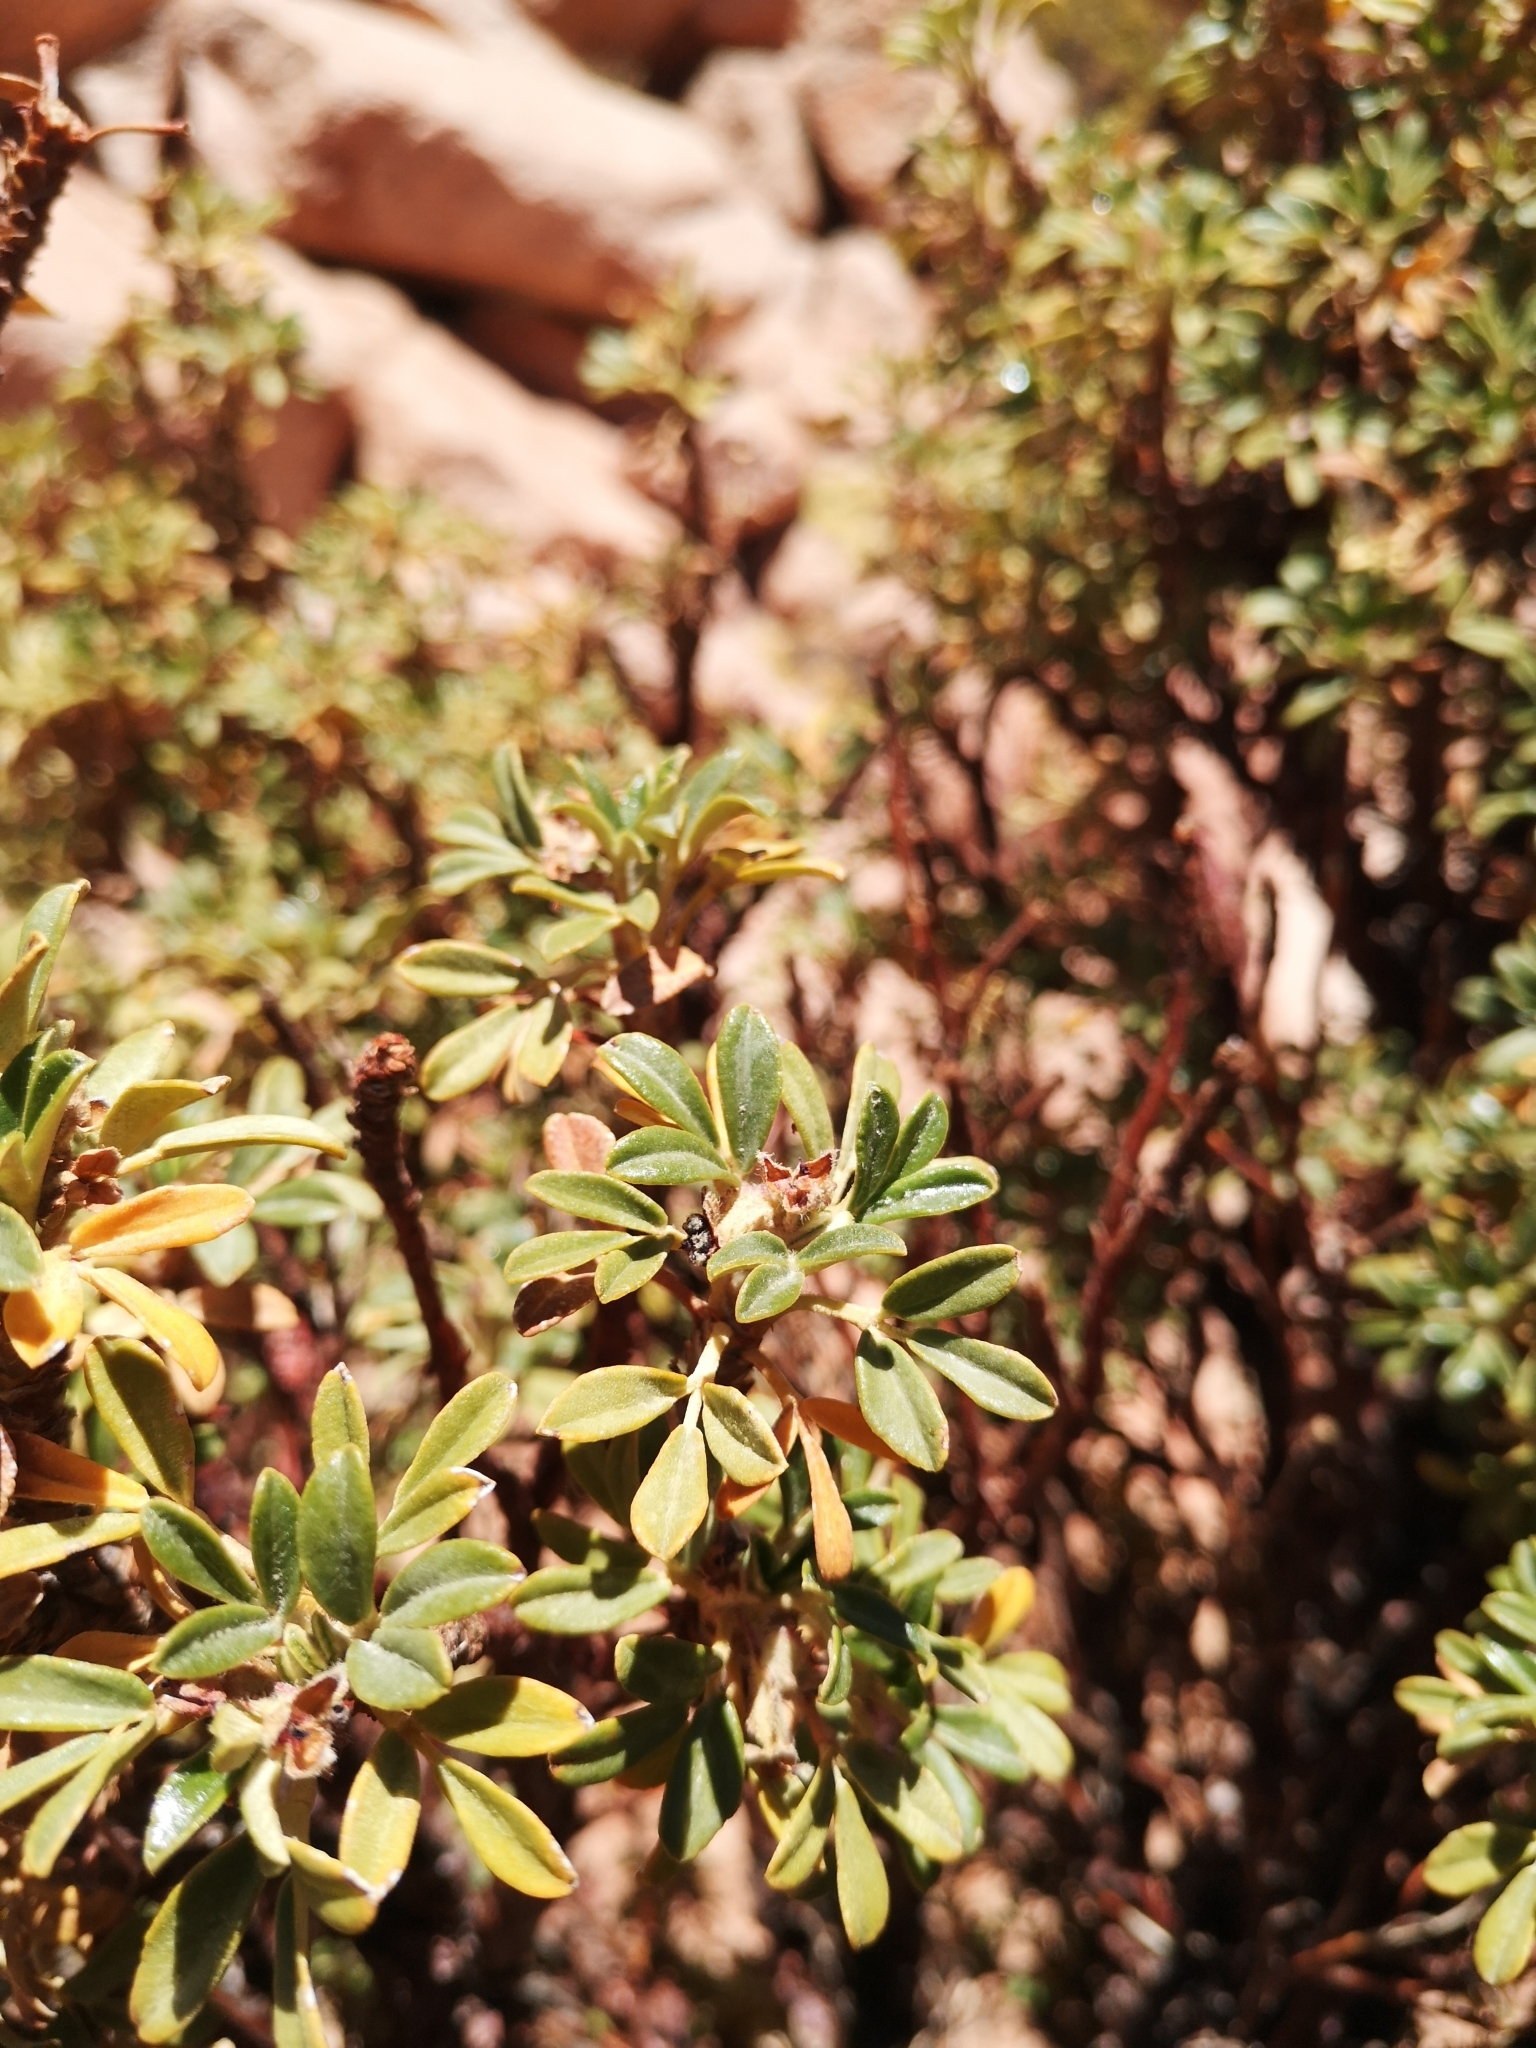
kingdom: Plantae
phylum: Tracheophyta
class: Magnoliopsida
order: Rosales
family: Rosaceae
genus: Polylepis
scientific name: Polylepis tarapacana
